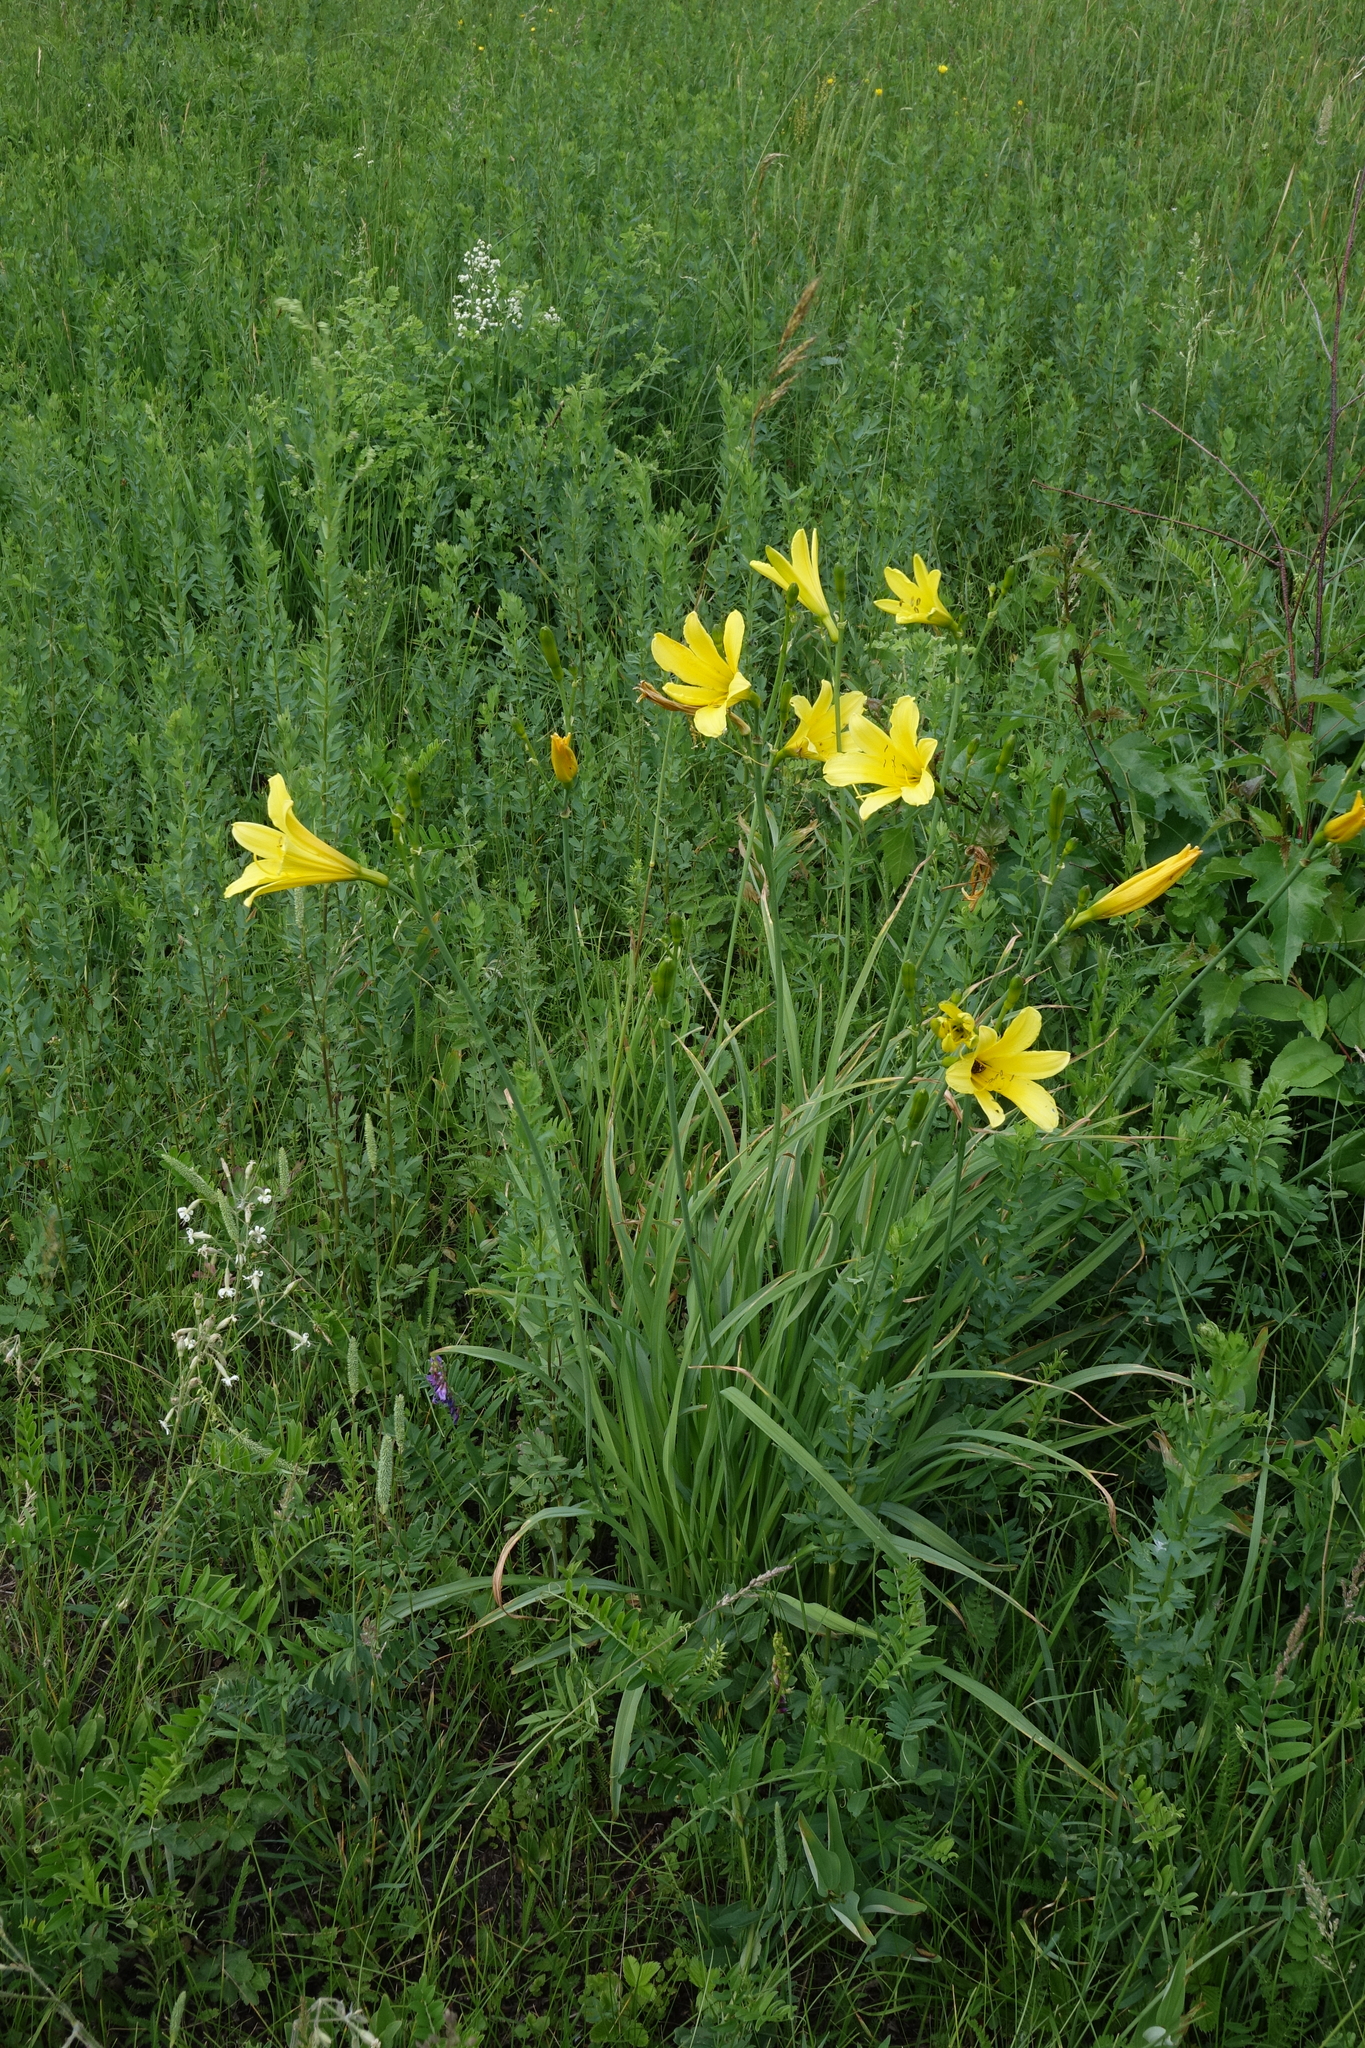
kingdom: Plantae
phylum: Tracheophyta
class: Liliopsida
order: Asparagales
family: Asphodelaceae
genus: Hemerocallis
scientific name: Hemerocallis minor
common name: Small daylily
